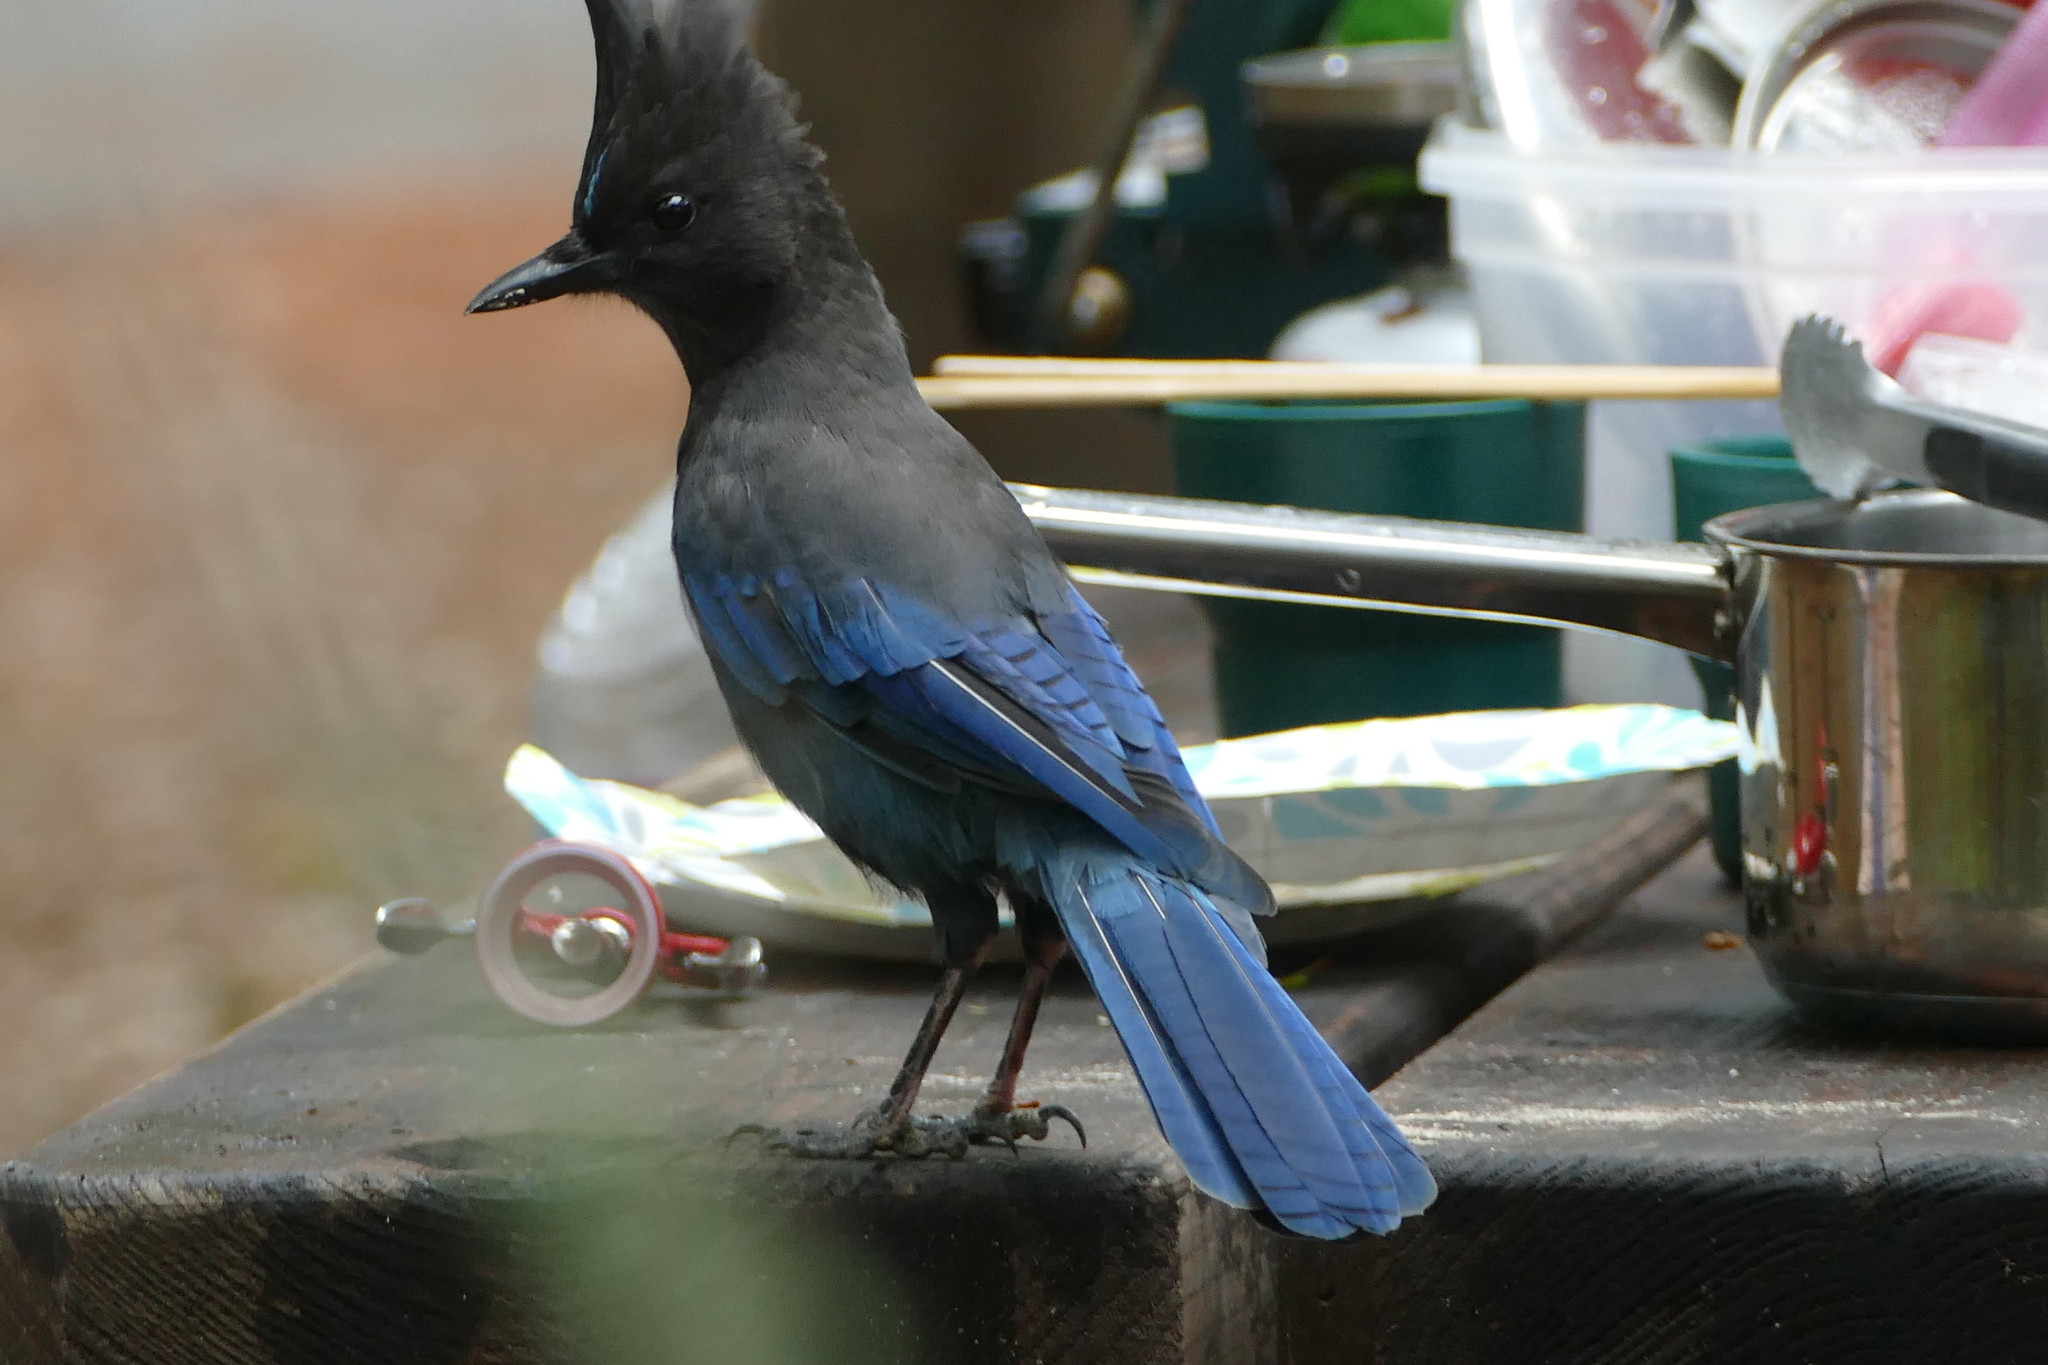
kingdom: Animalia
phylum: Chordata
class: Aves
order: Passeriformes
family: Corvidae
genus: Cyanocitta
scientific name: Cyanocitta stelleri
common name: Steller's jay
